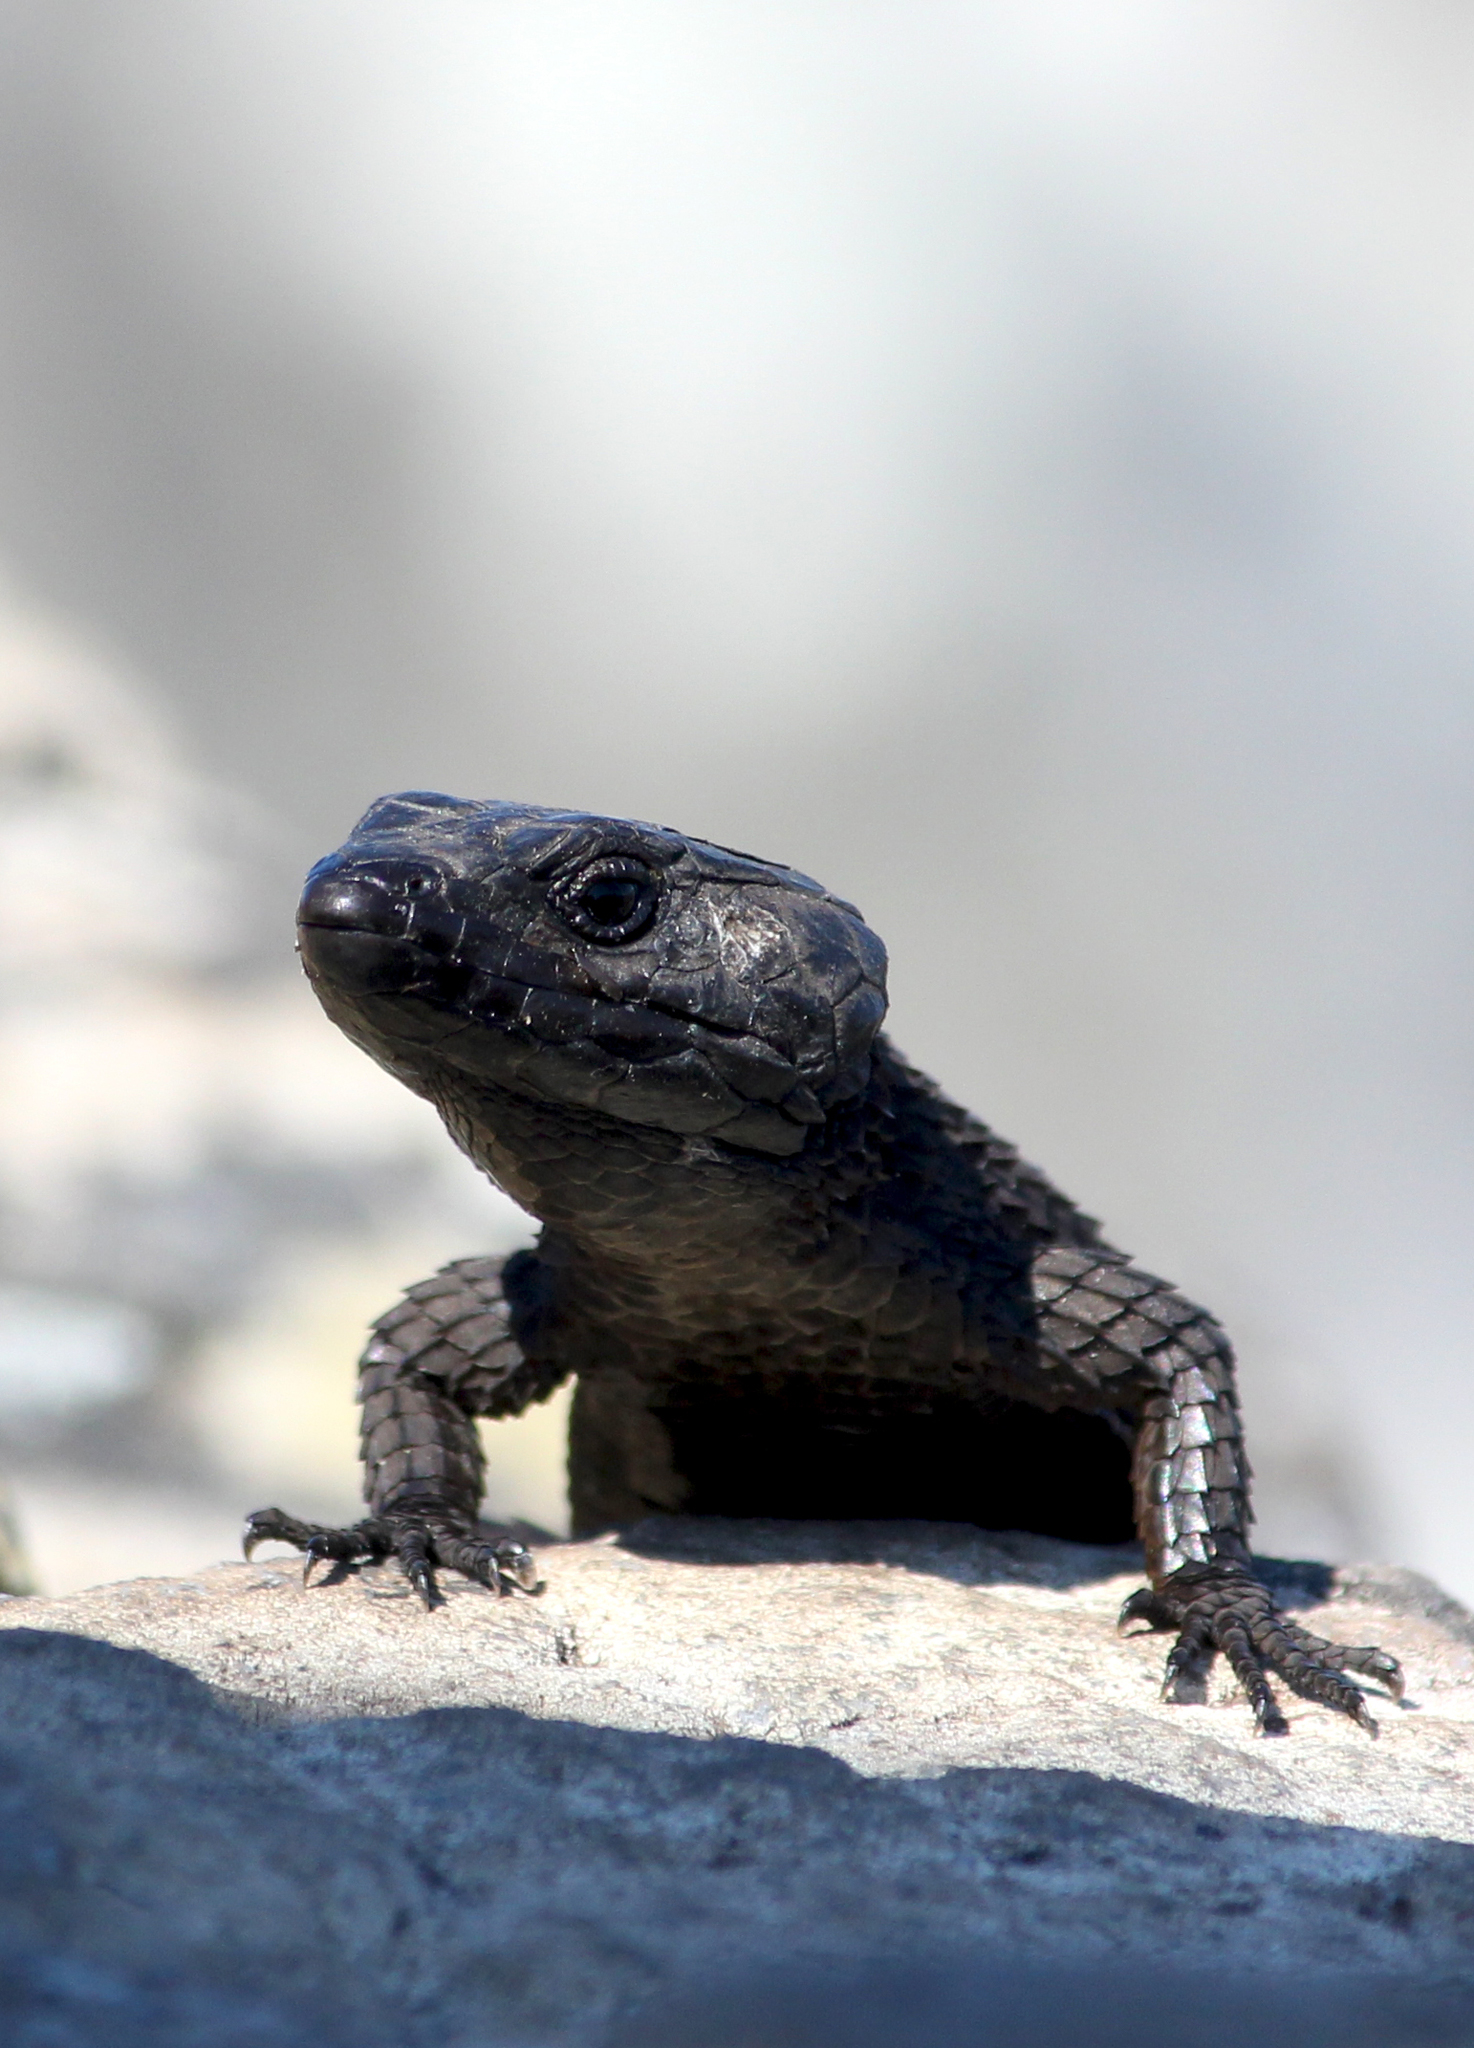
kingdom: Animalia
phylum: Chordata
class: Squamata
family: Cordylidae
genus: Cordylus
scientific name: Cordylus niger
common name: Black girdled lizard
